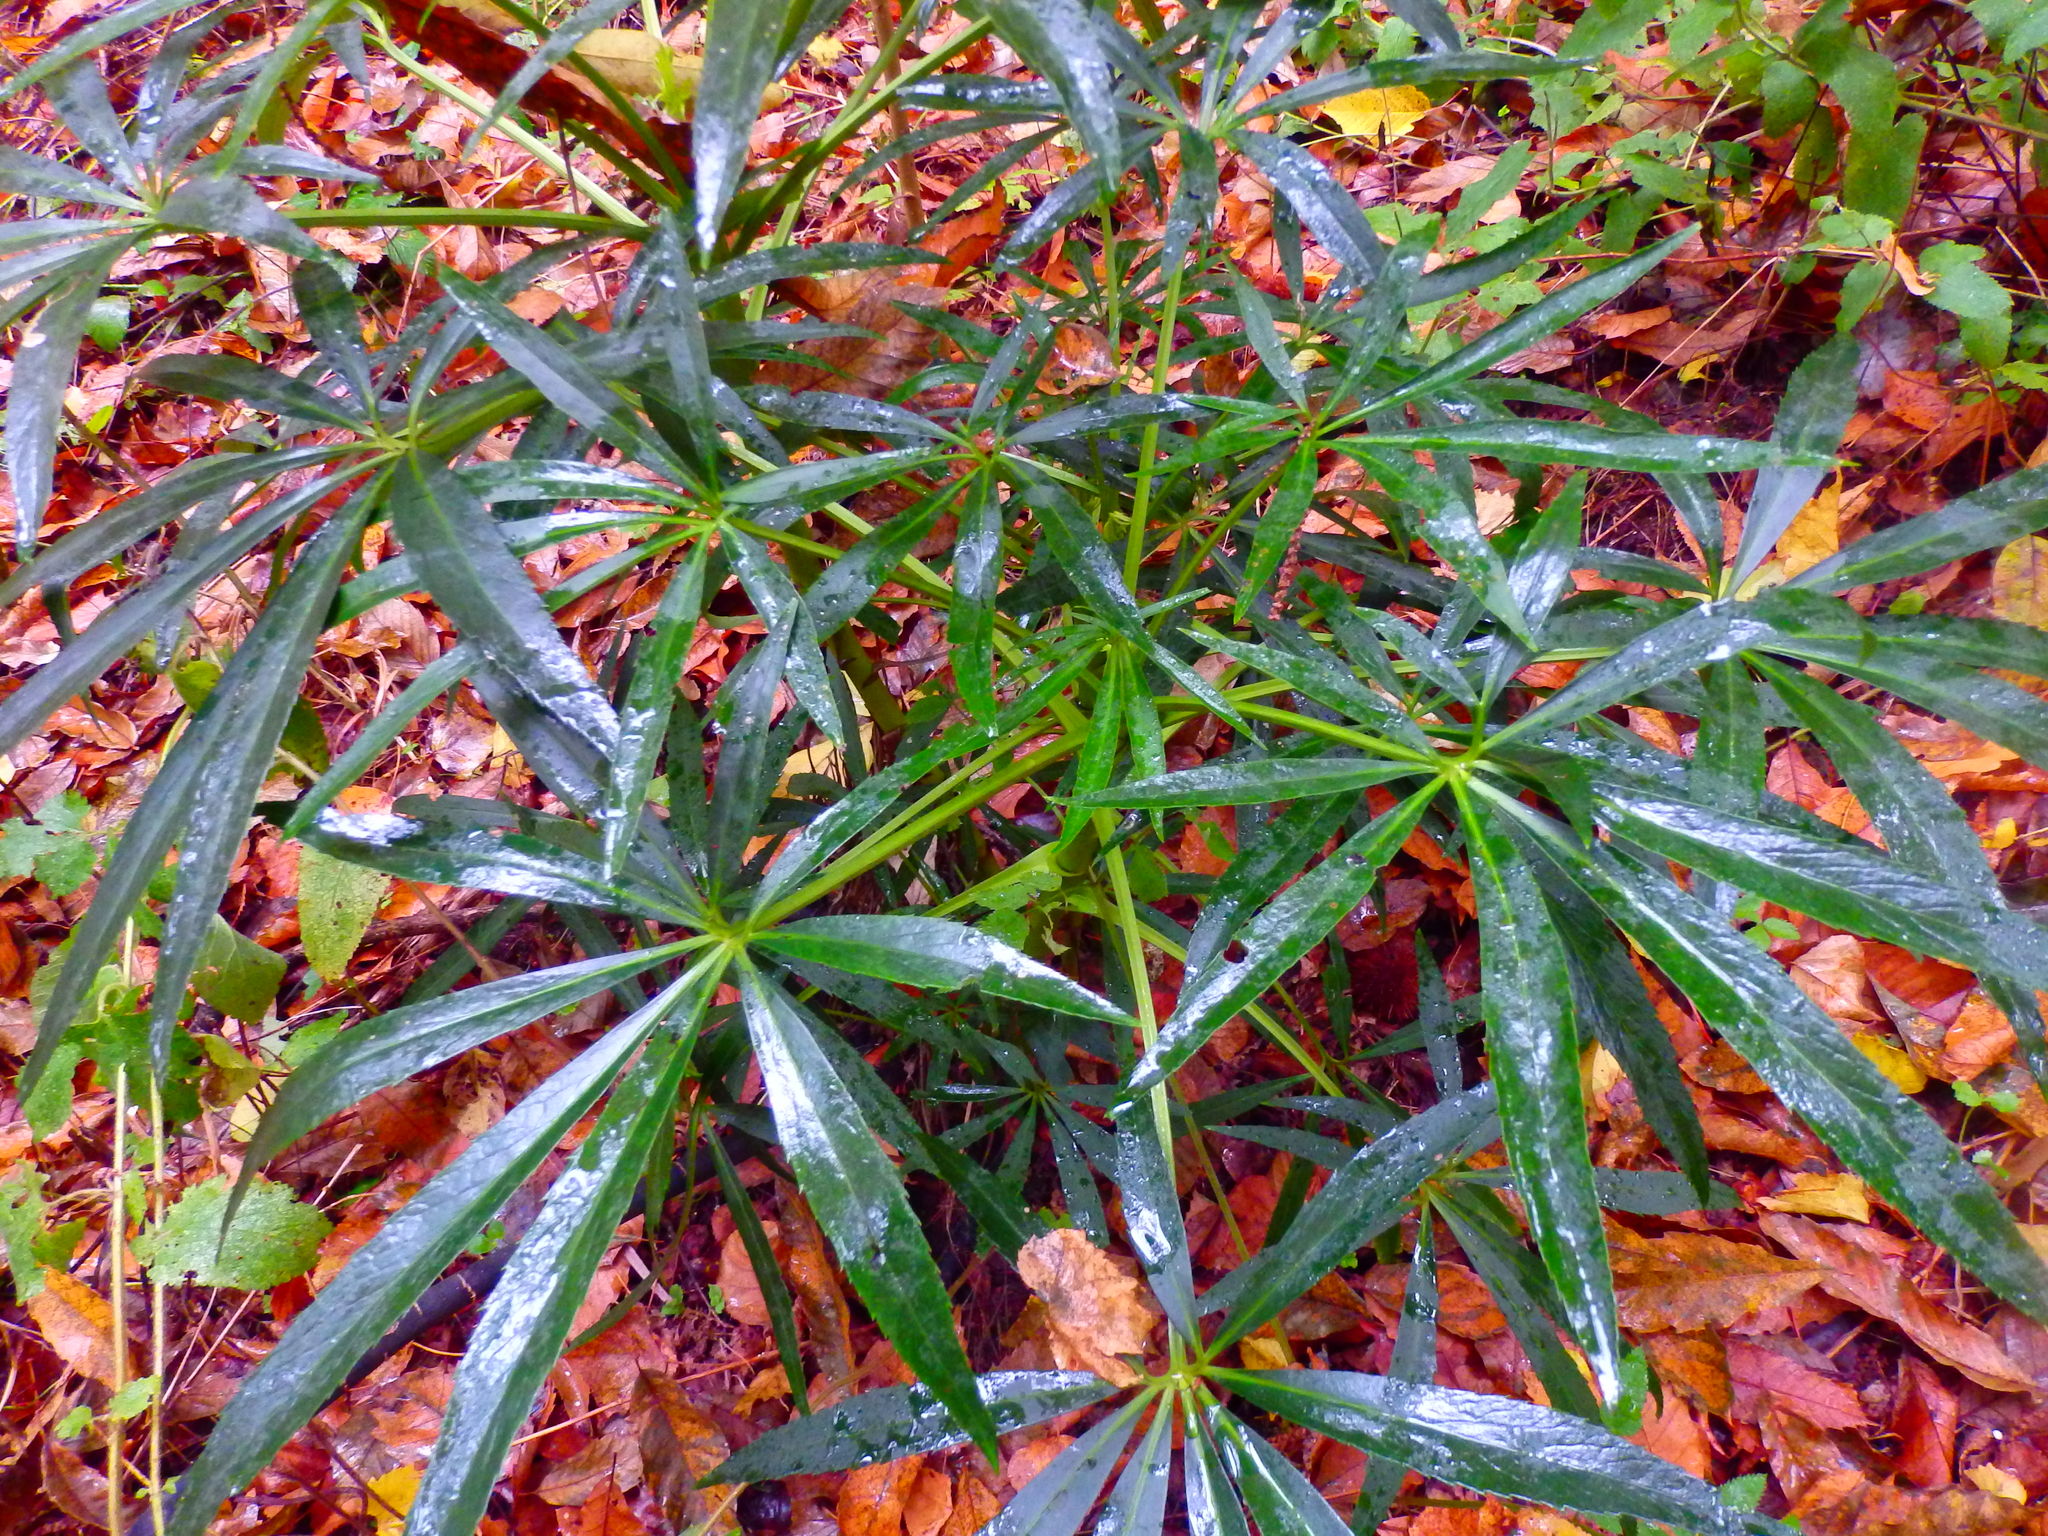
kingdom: Plantae
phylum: Tracheophyta
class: Magnoliopsida
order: Ranunculales
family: Ranunculaceae
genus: Helleborus
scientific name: Helleborus foetidus
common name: Stinking hellebore
